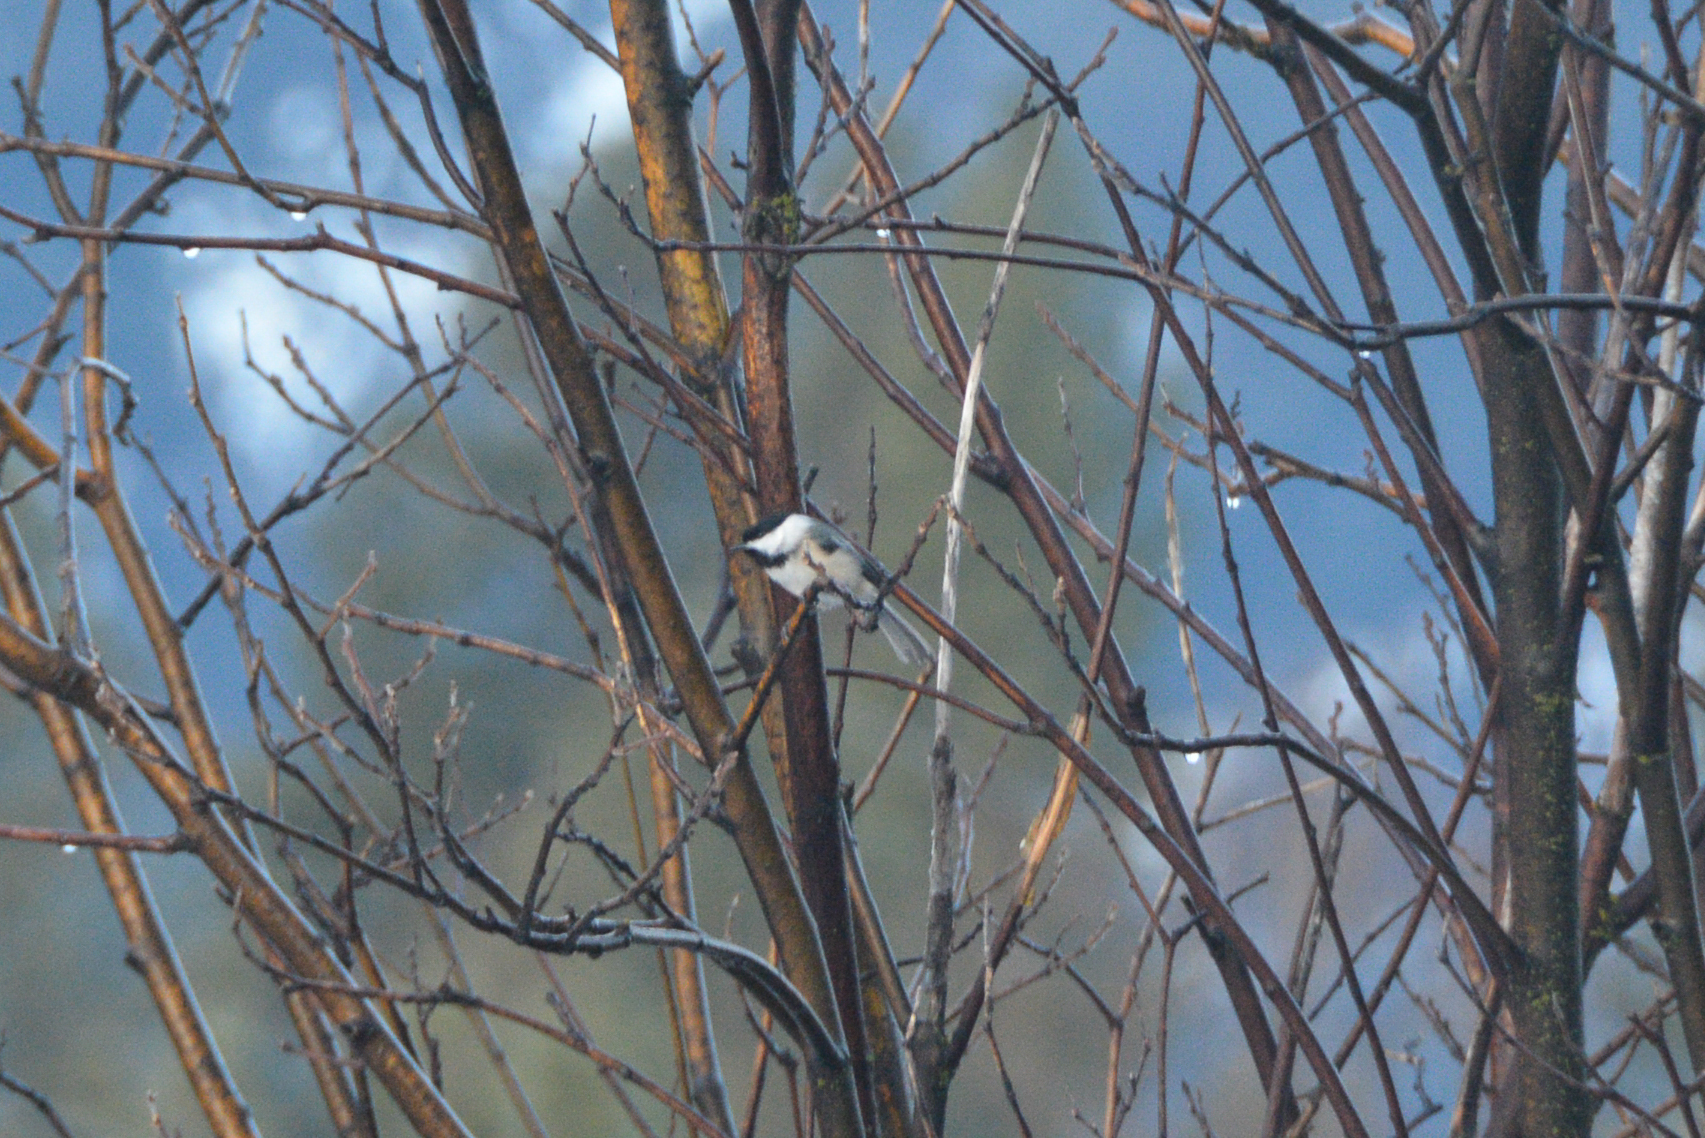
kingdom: Animalia
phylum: Chordata
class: Aves
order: Passeriformes
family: Paridae
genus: Poecile
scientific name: Poecile atricapillus
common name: Black-capped chickadee
